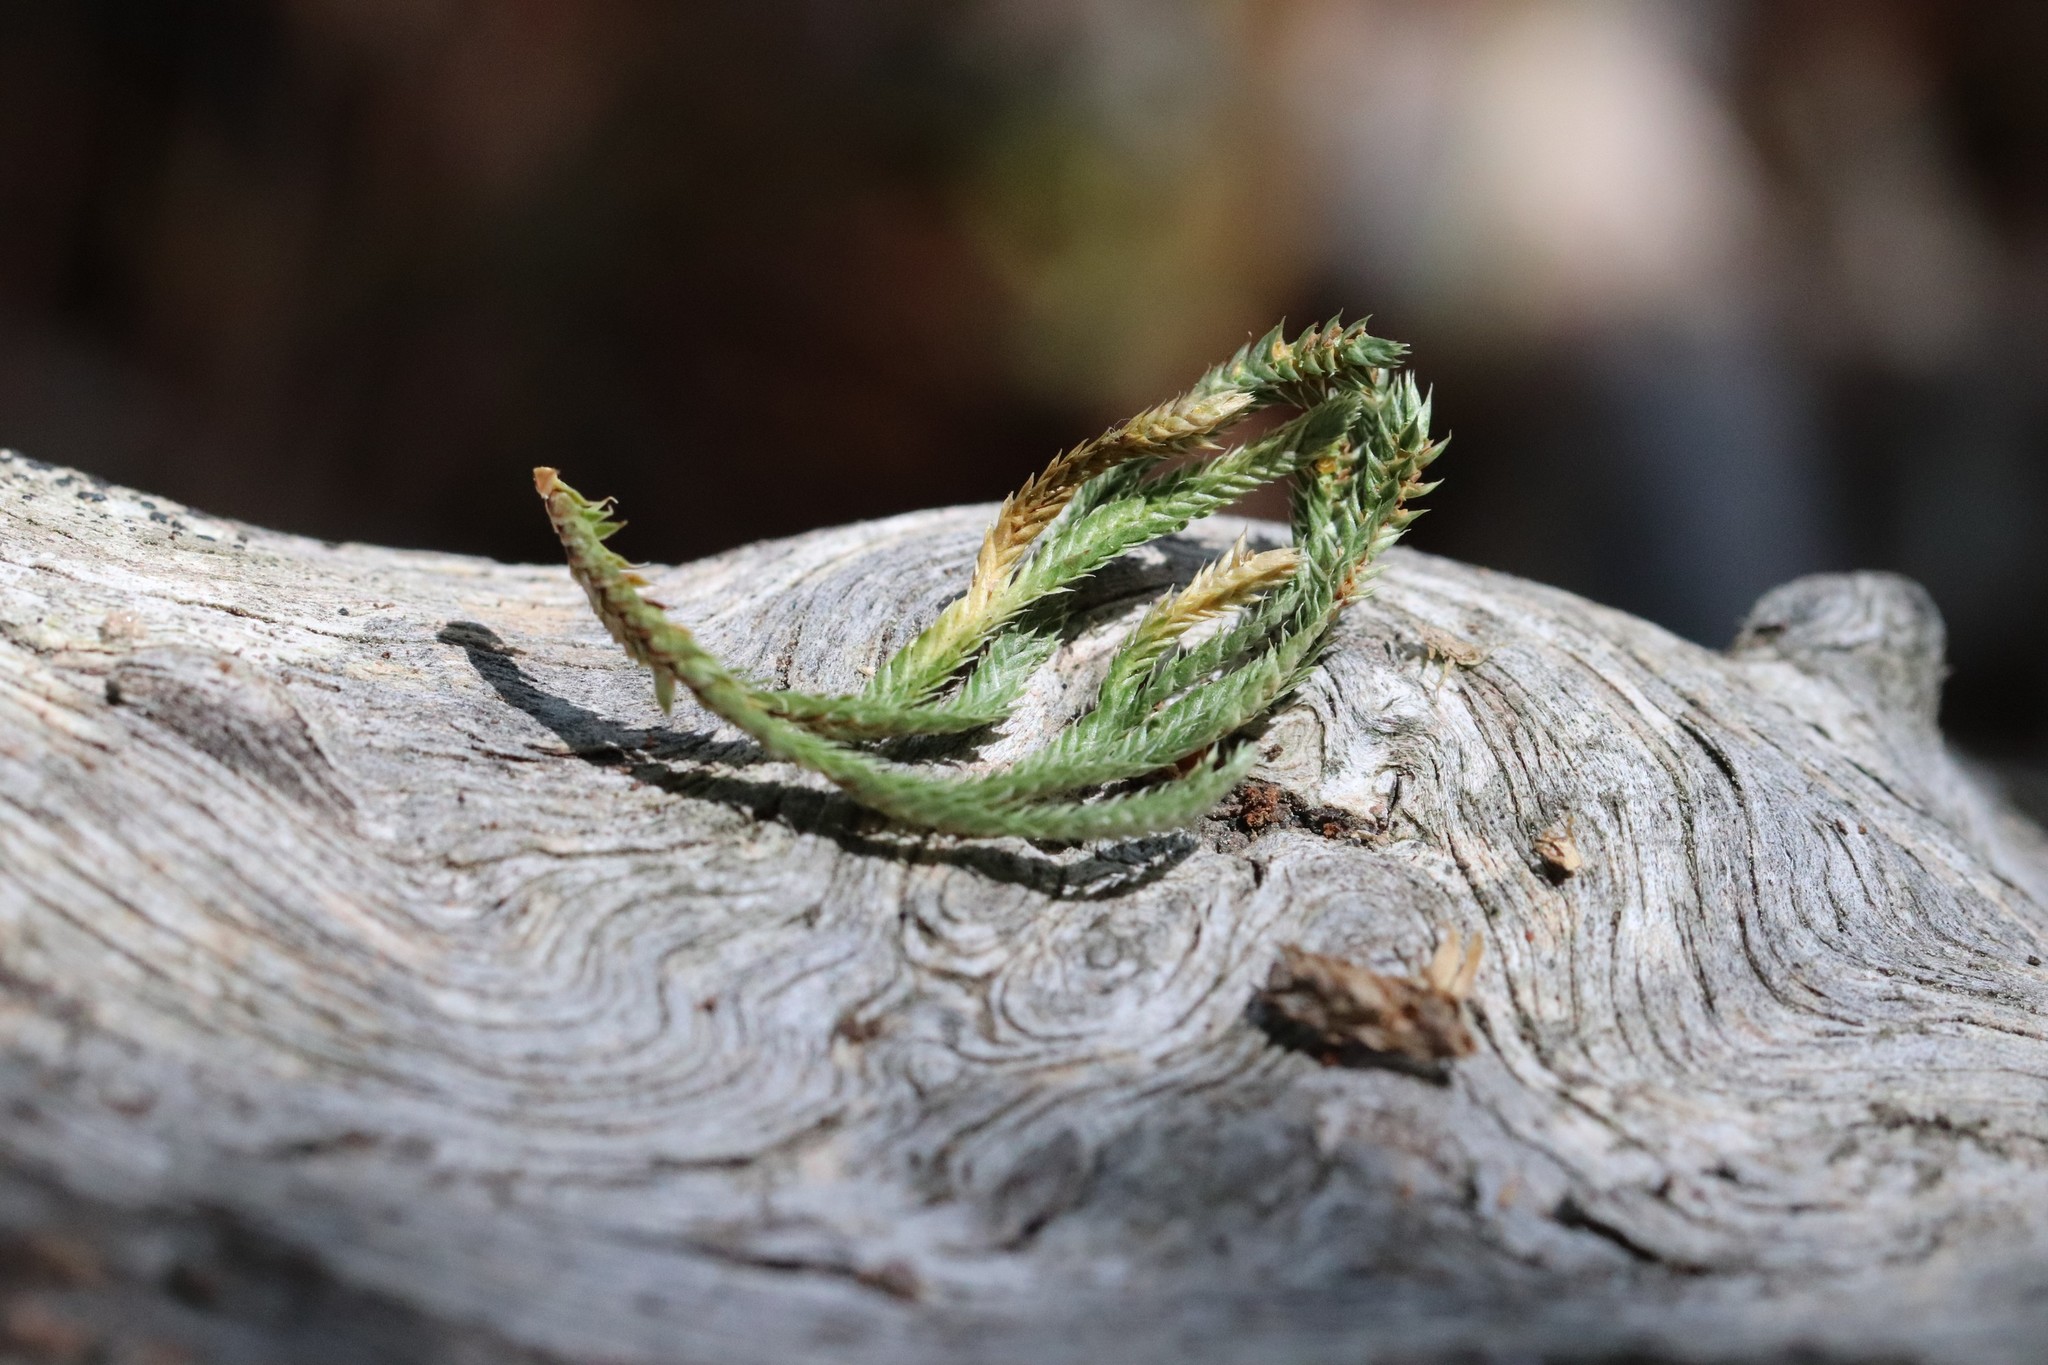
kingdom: Plantae
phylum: Tracheophyta
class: Lycopodiopsida
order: Selaginellales
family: Selaginellaceae
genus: Selaginella
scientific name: Selaginella tamariscina
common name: Little-club-moss
